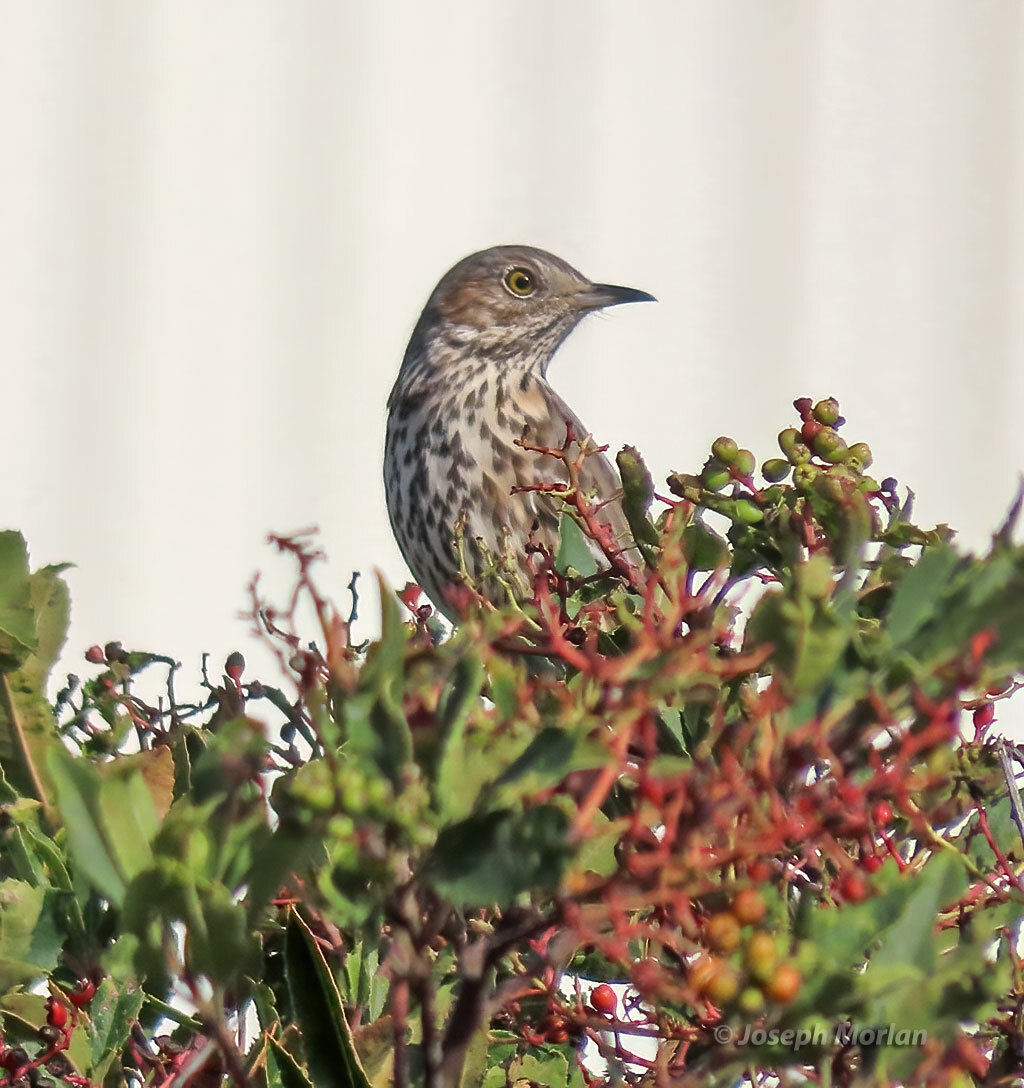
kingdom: Animalia
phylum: Chordata
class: Aves
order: Passeriformes
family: Mimidae
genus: Oreoscoptes
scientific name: Oreoscoptes montanus
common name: Sage thrasher
